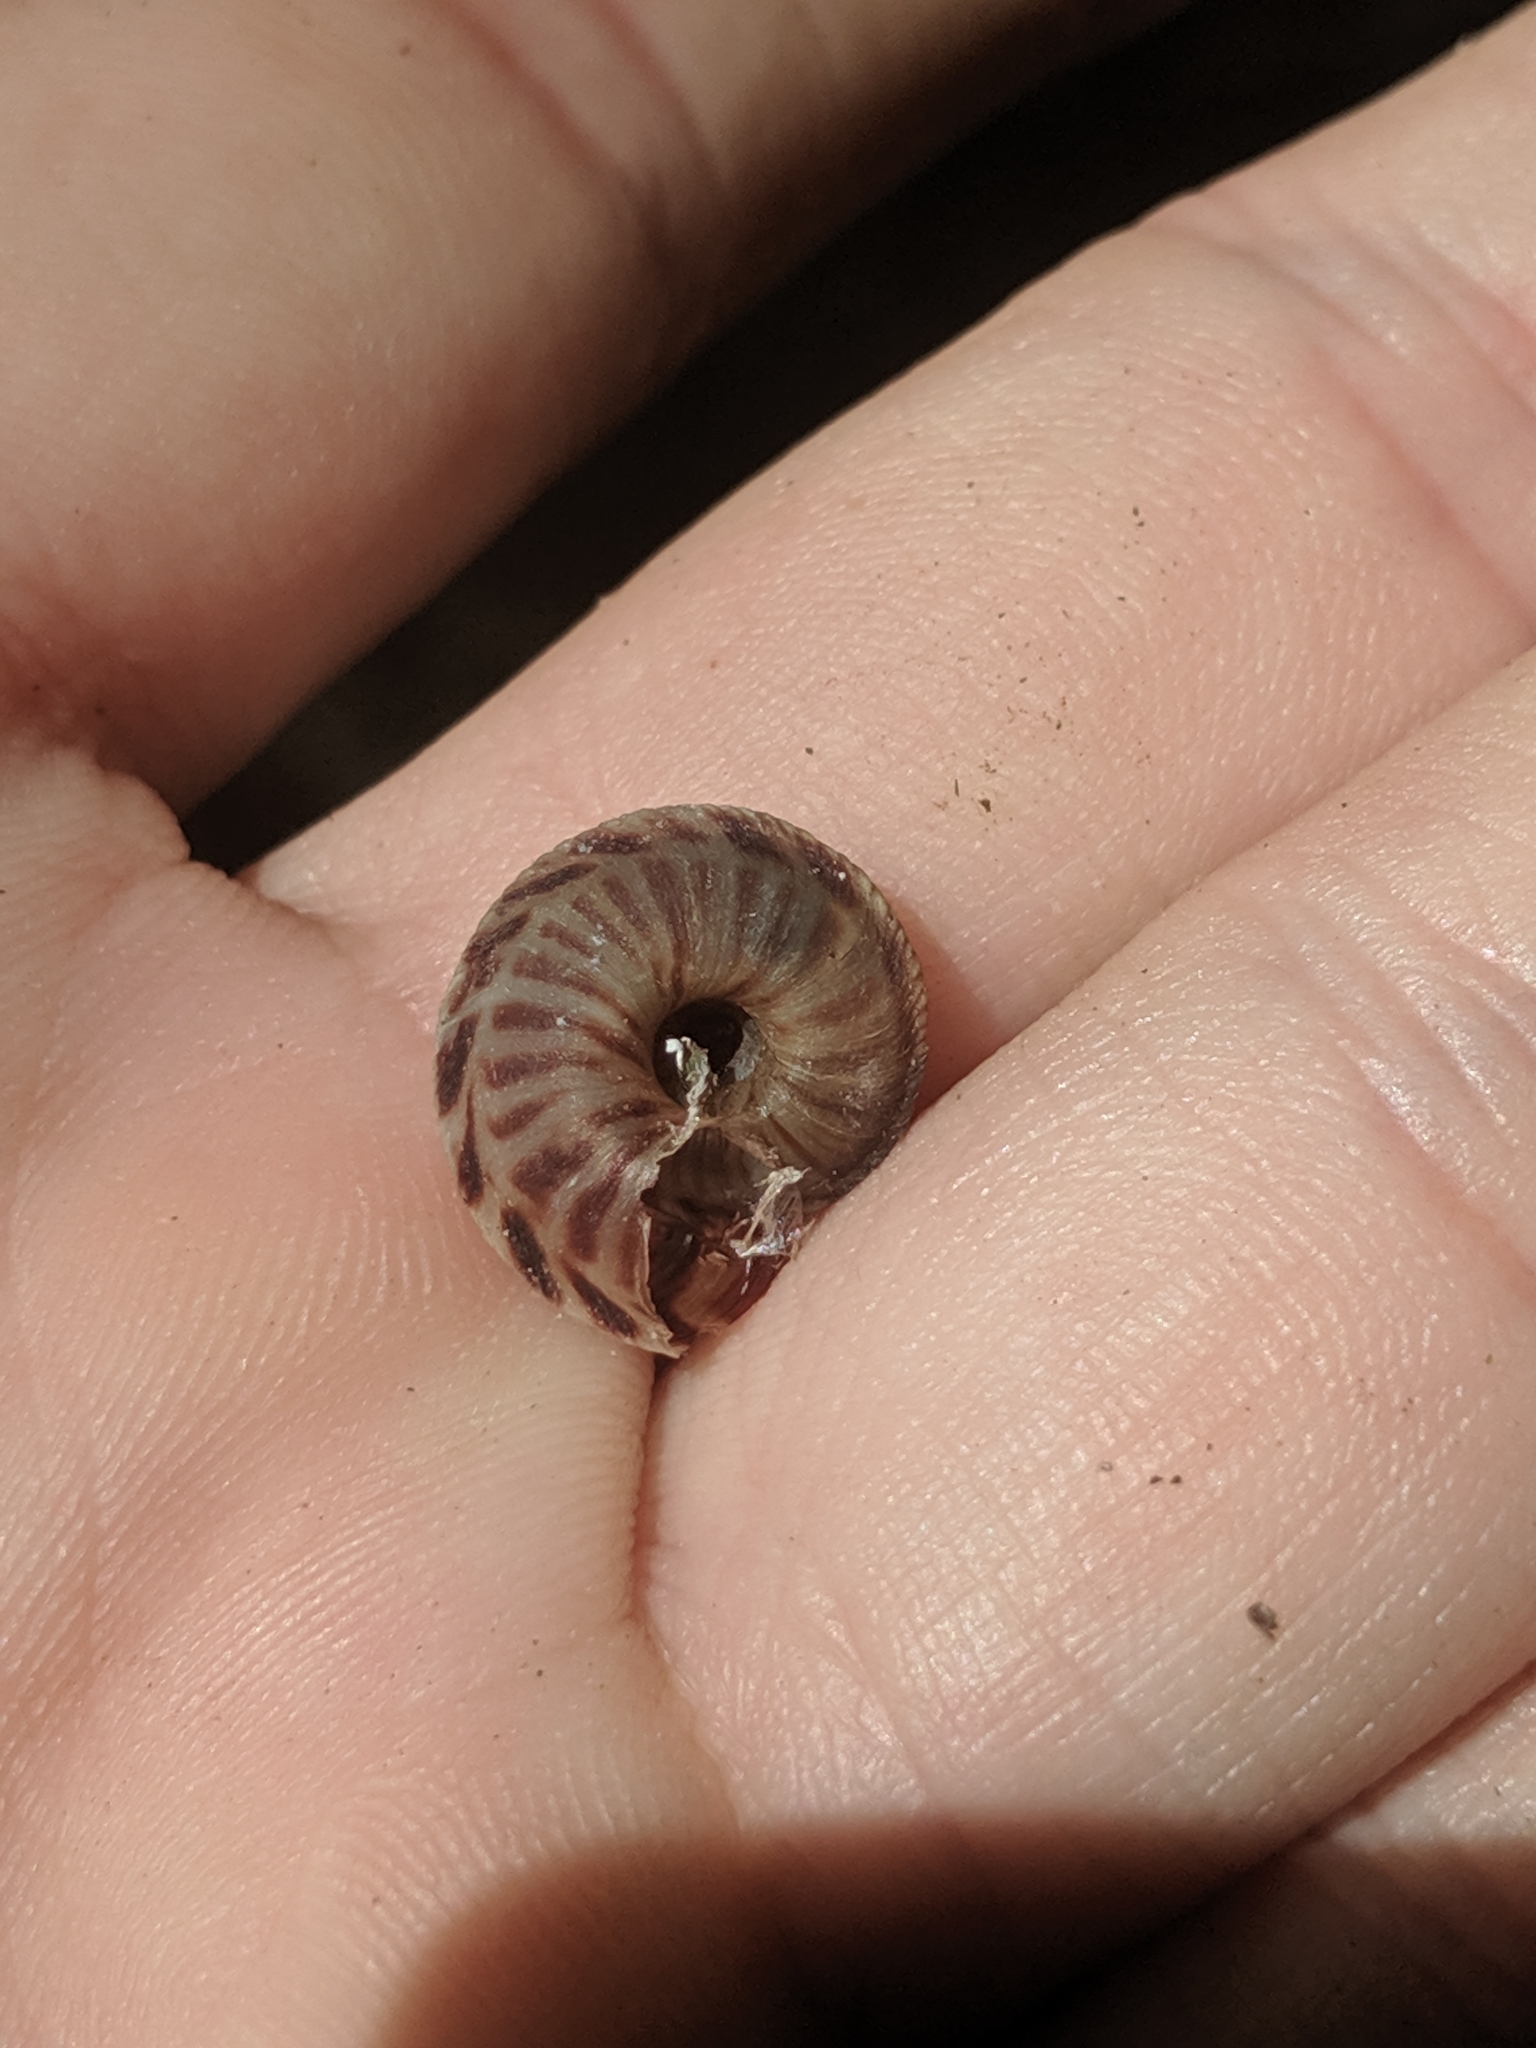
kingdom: Animalia
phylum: Mollusca
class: Gastropoda
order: Stylommatophora
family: Discidae
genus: Anguispira
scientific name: Anguispira alternata
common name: Flamed tigersnail
